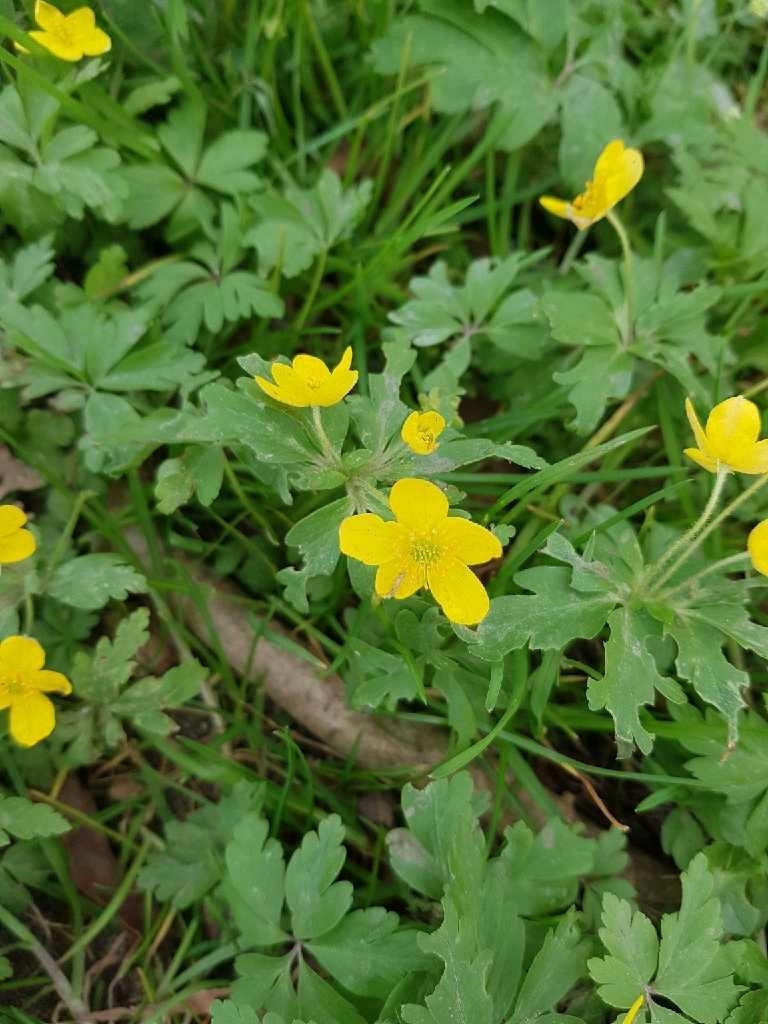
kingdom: Plantae
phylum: Tracheophyta
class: Magnoliopsida
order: Ranunculales
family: Ranunculaceae
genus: Anemone
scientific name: Anemone ranunculoides
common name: Yellow anemone
